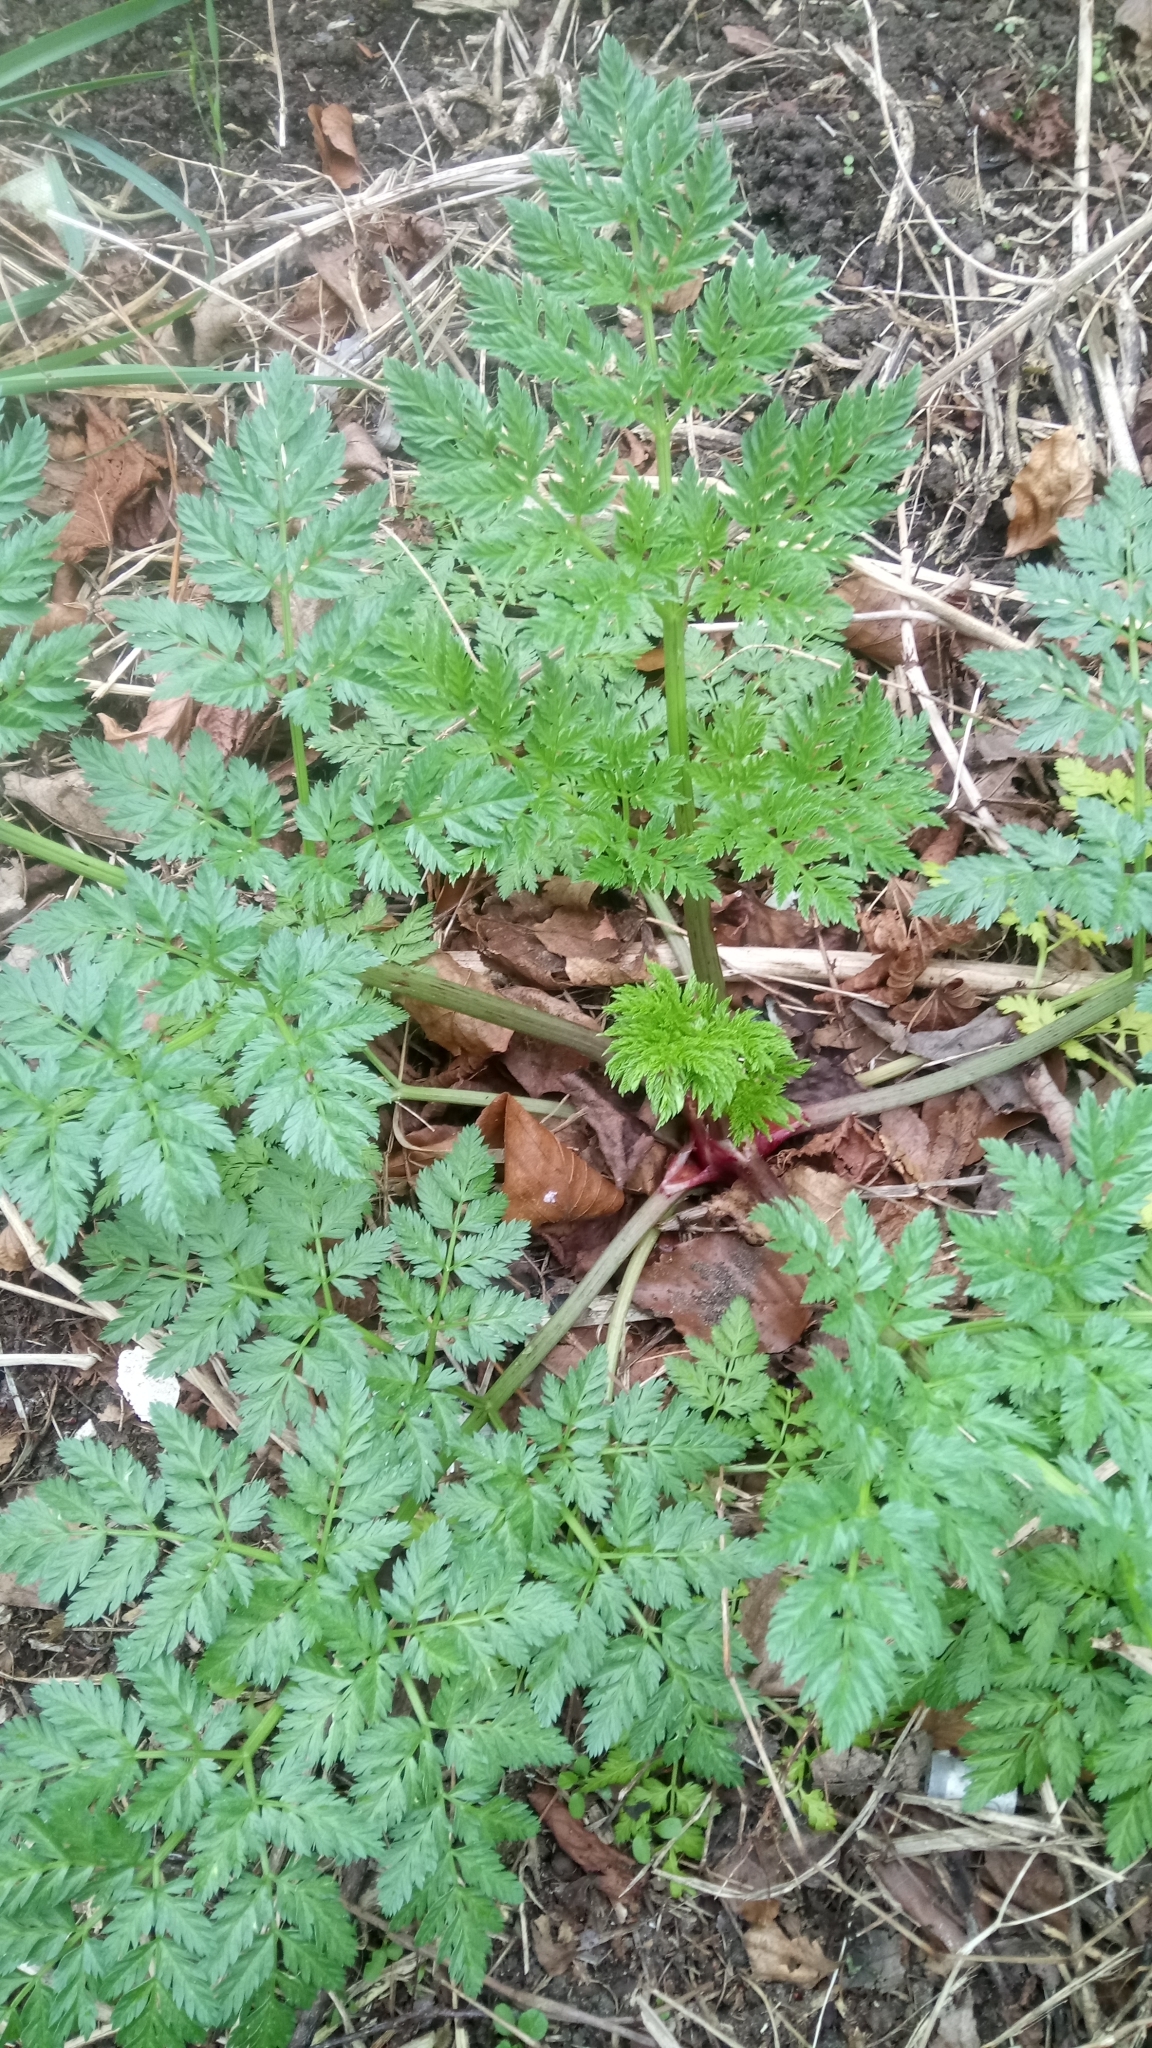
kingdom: Plantae
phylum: Tracheophyta
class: Magnoliopsida
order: Apiales
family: Apiaceae
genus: Conium
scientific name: Conium maculatum
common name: Hemlock
